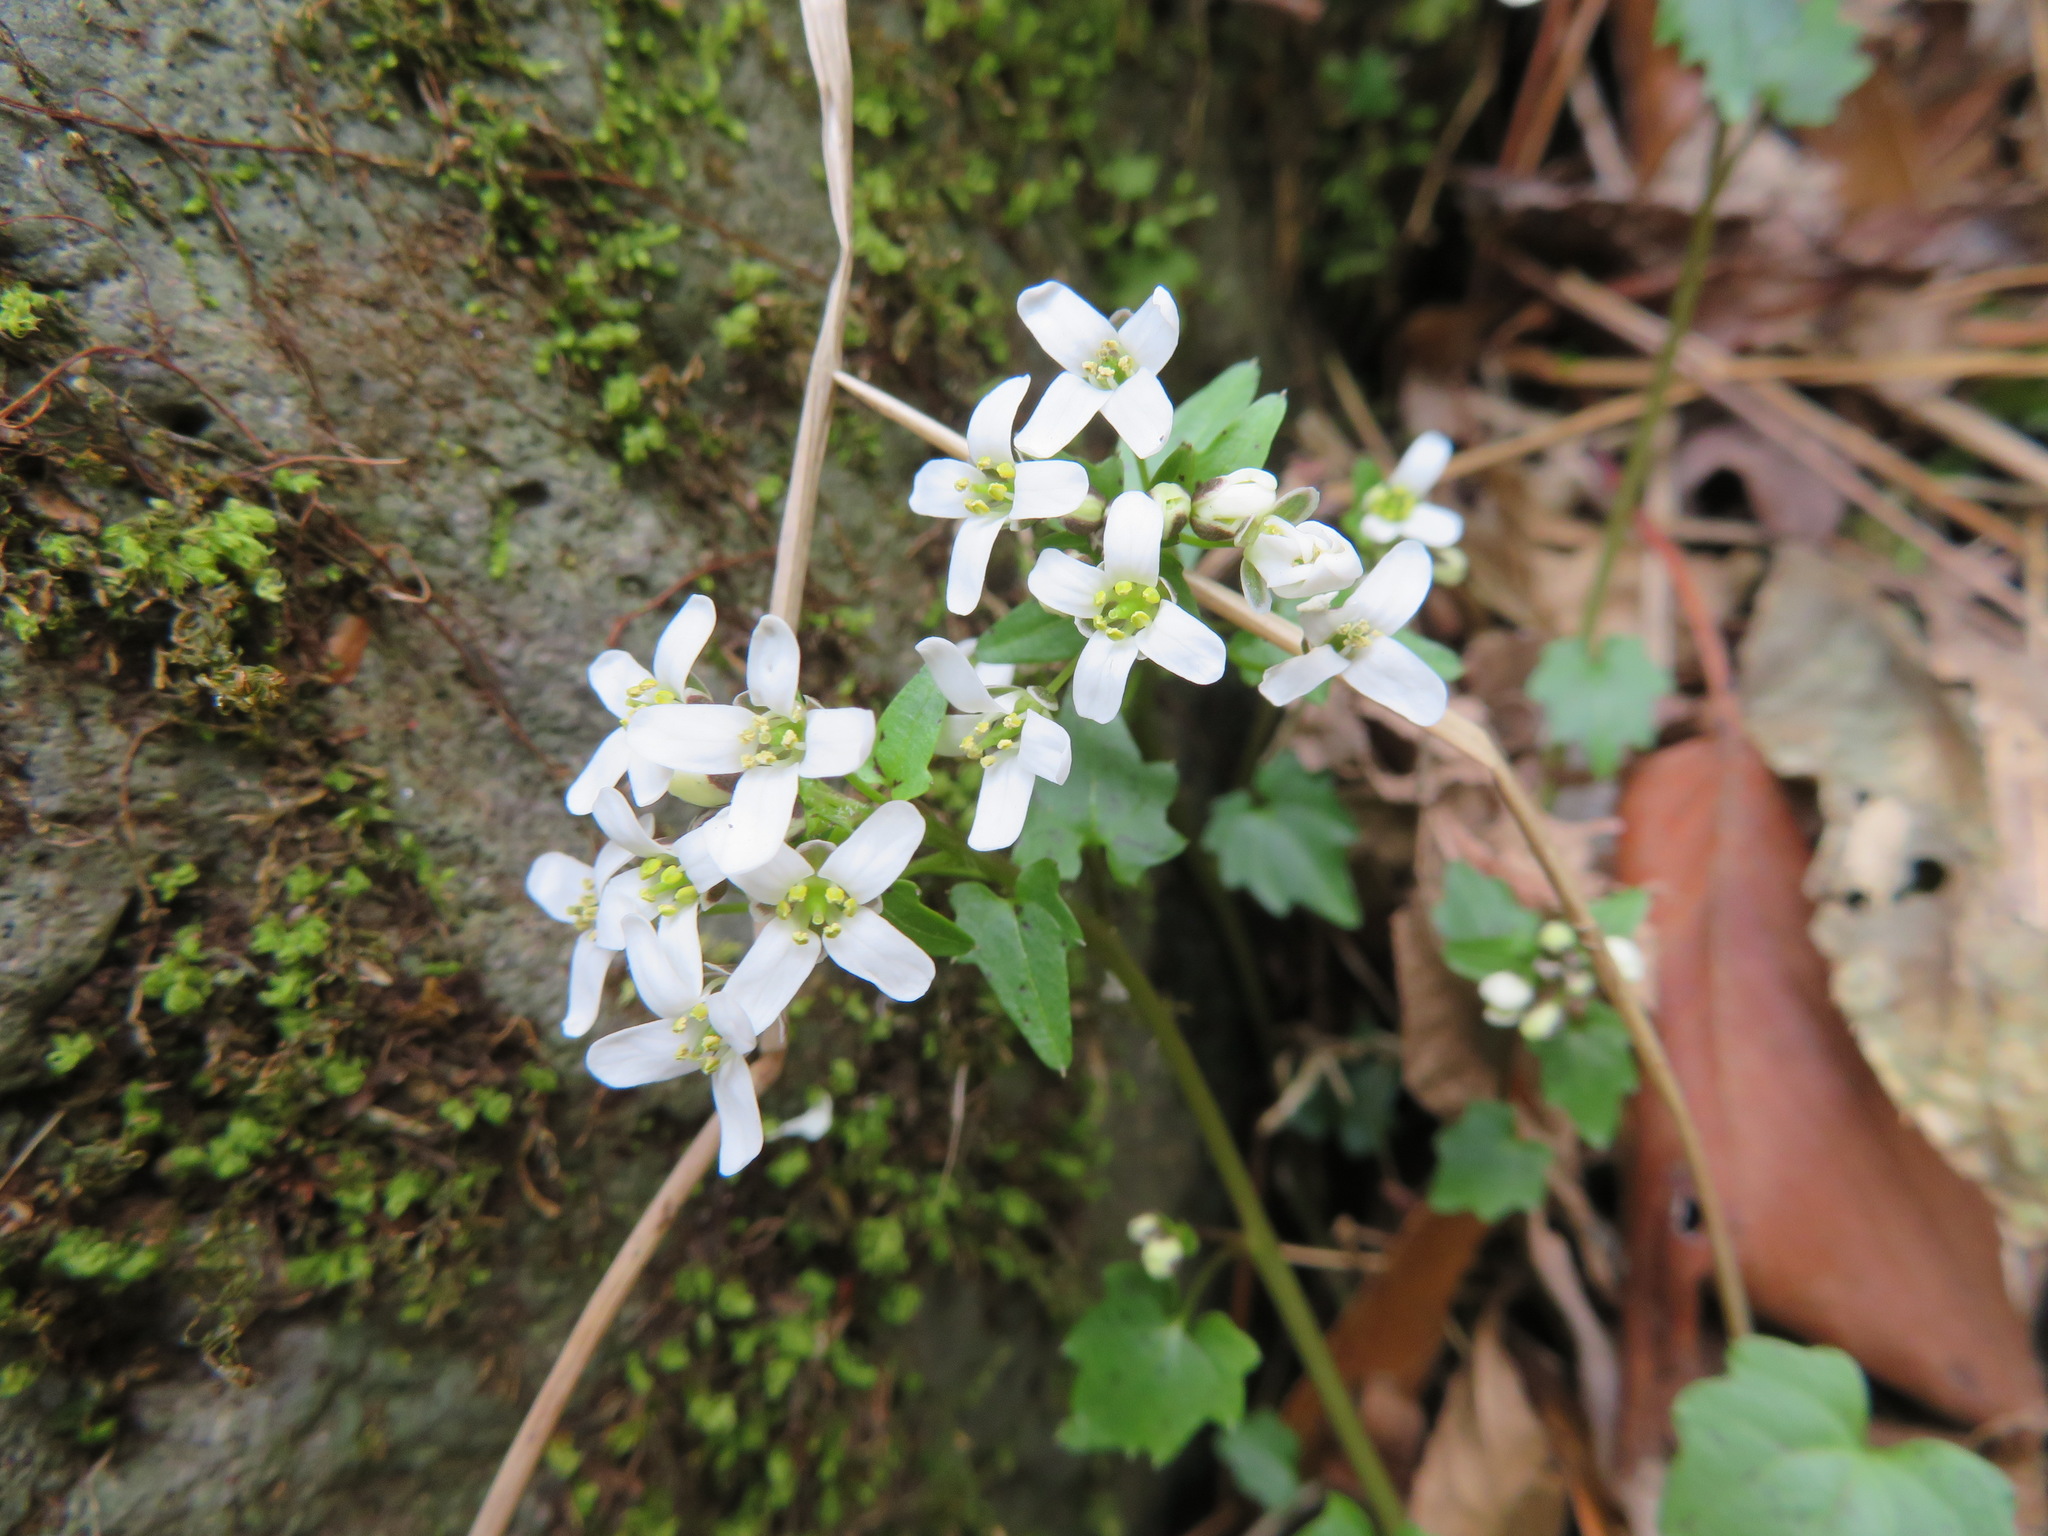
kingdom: Plantae
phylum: Tracheophyta
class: Magnoliopsida
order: Brassicales
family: Brassicaceae
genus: Eutrema
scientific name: Eutrema tenue
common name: Lesser wasabi
